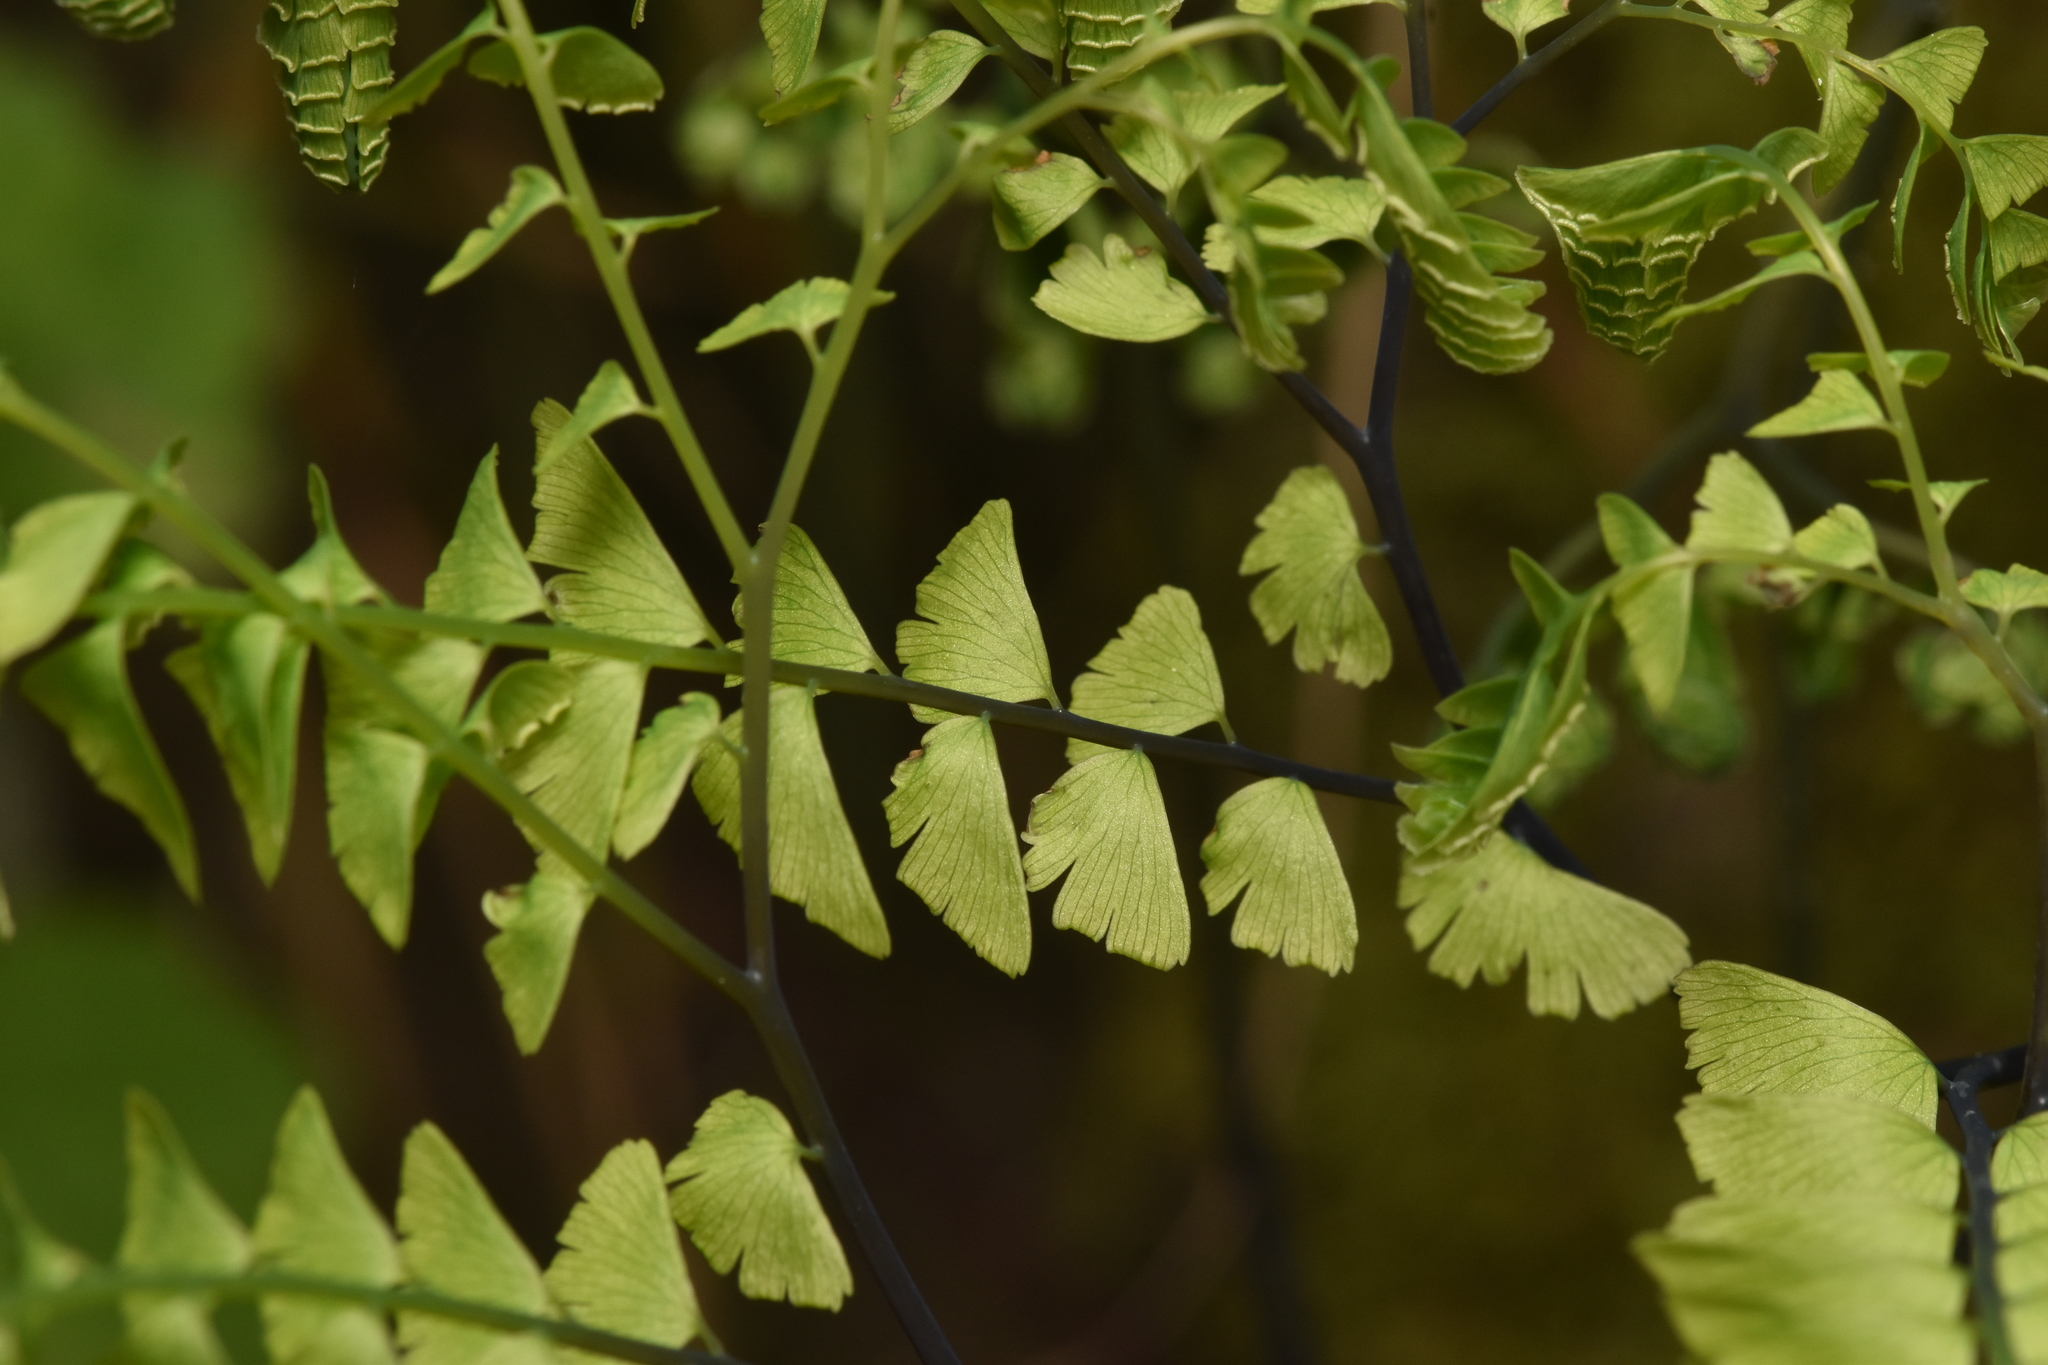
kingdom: Plantae
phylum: Tracheophyta
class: Polypodiopsida
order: Polypodiales
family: Pteridaceae
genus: Adiantum
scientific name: Adiantum aleuticum
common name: Aleutian maidenhair fern
